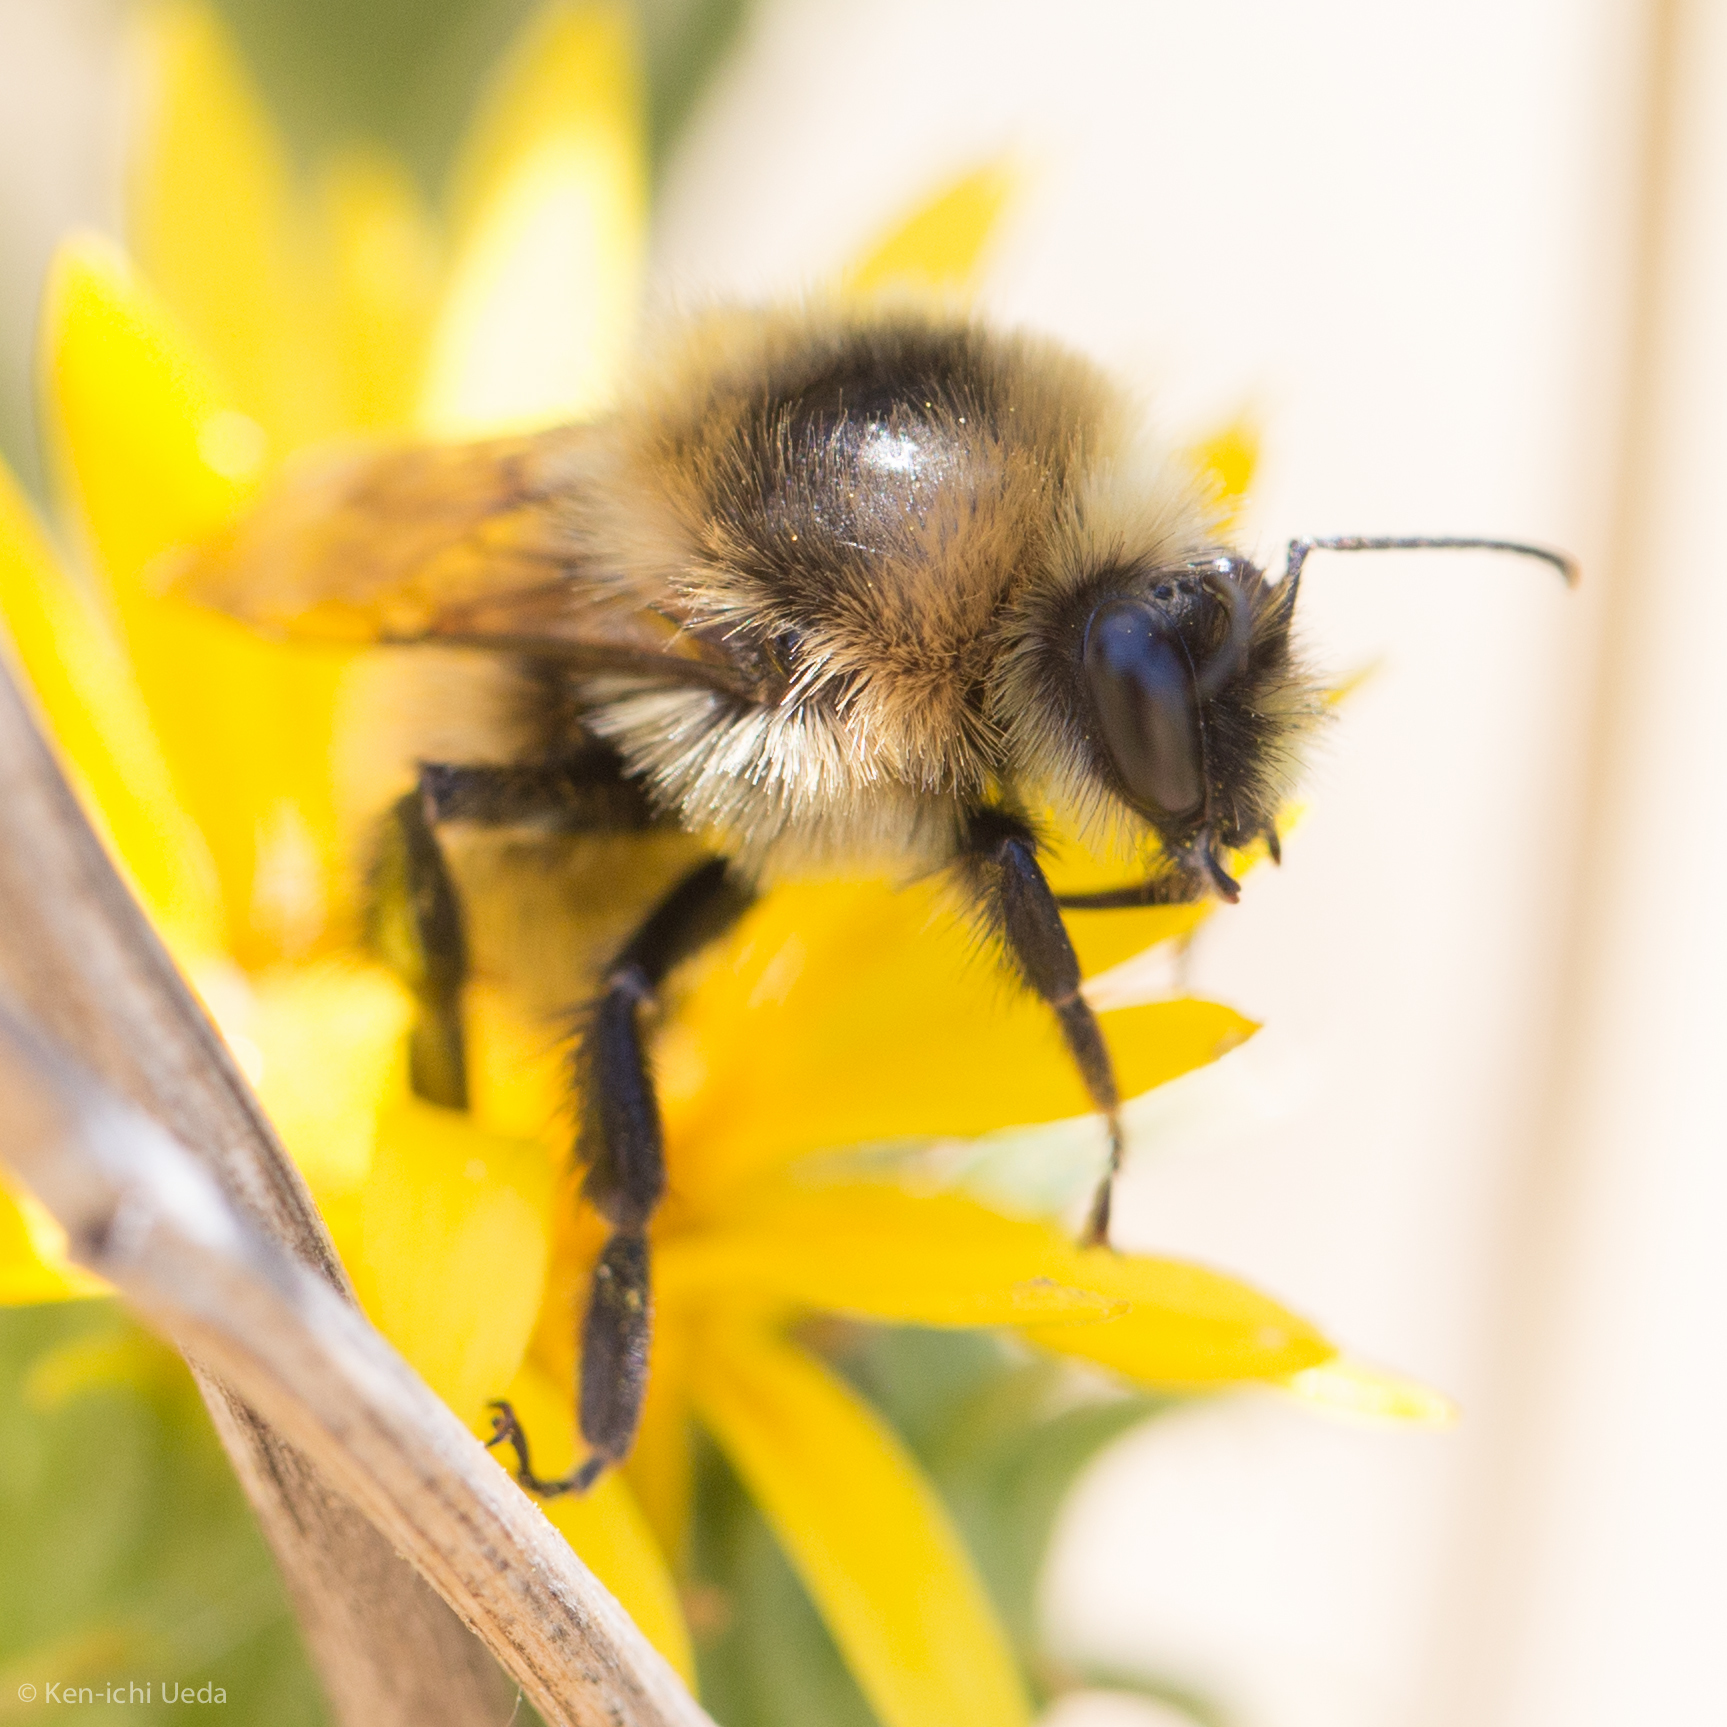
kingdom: Animalia
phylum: Arthropoda
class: Insecta
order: Hymenoptera
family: Apidae
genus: Bombus
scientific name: Bombus rufocinctus
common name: Red-belted bumble bee
